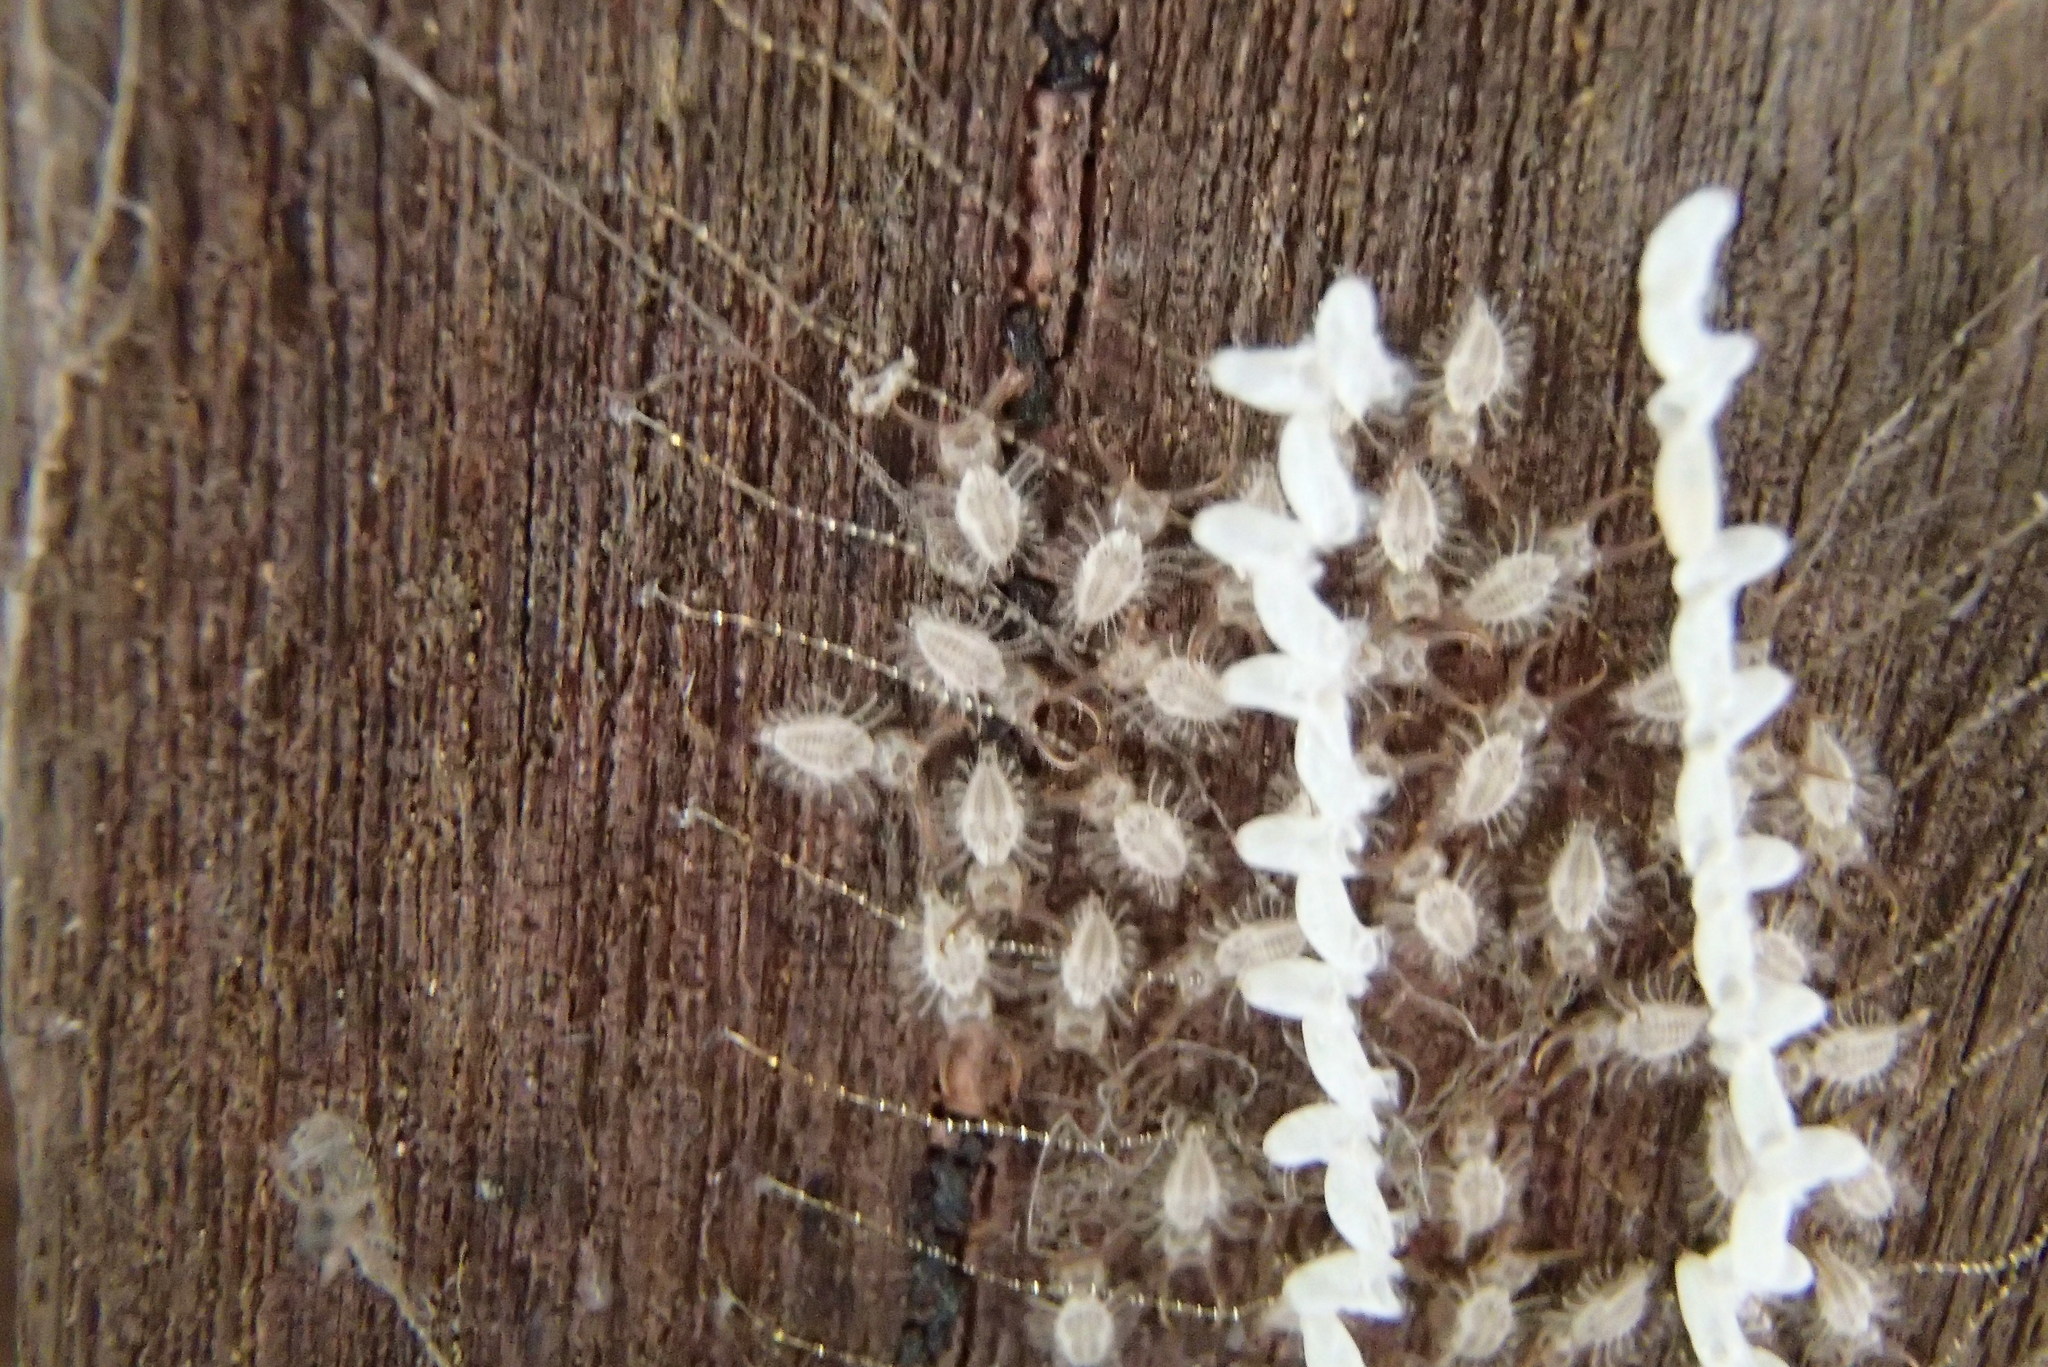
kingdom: Animalia
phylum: Arthropoda
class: Insecta
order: Neuroptera
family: Nymphidae
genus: Nymphes
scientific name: Nymphes myrmeleonoides
